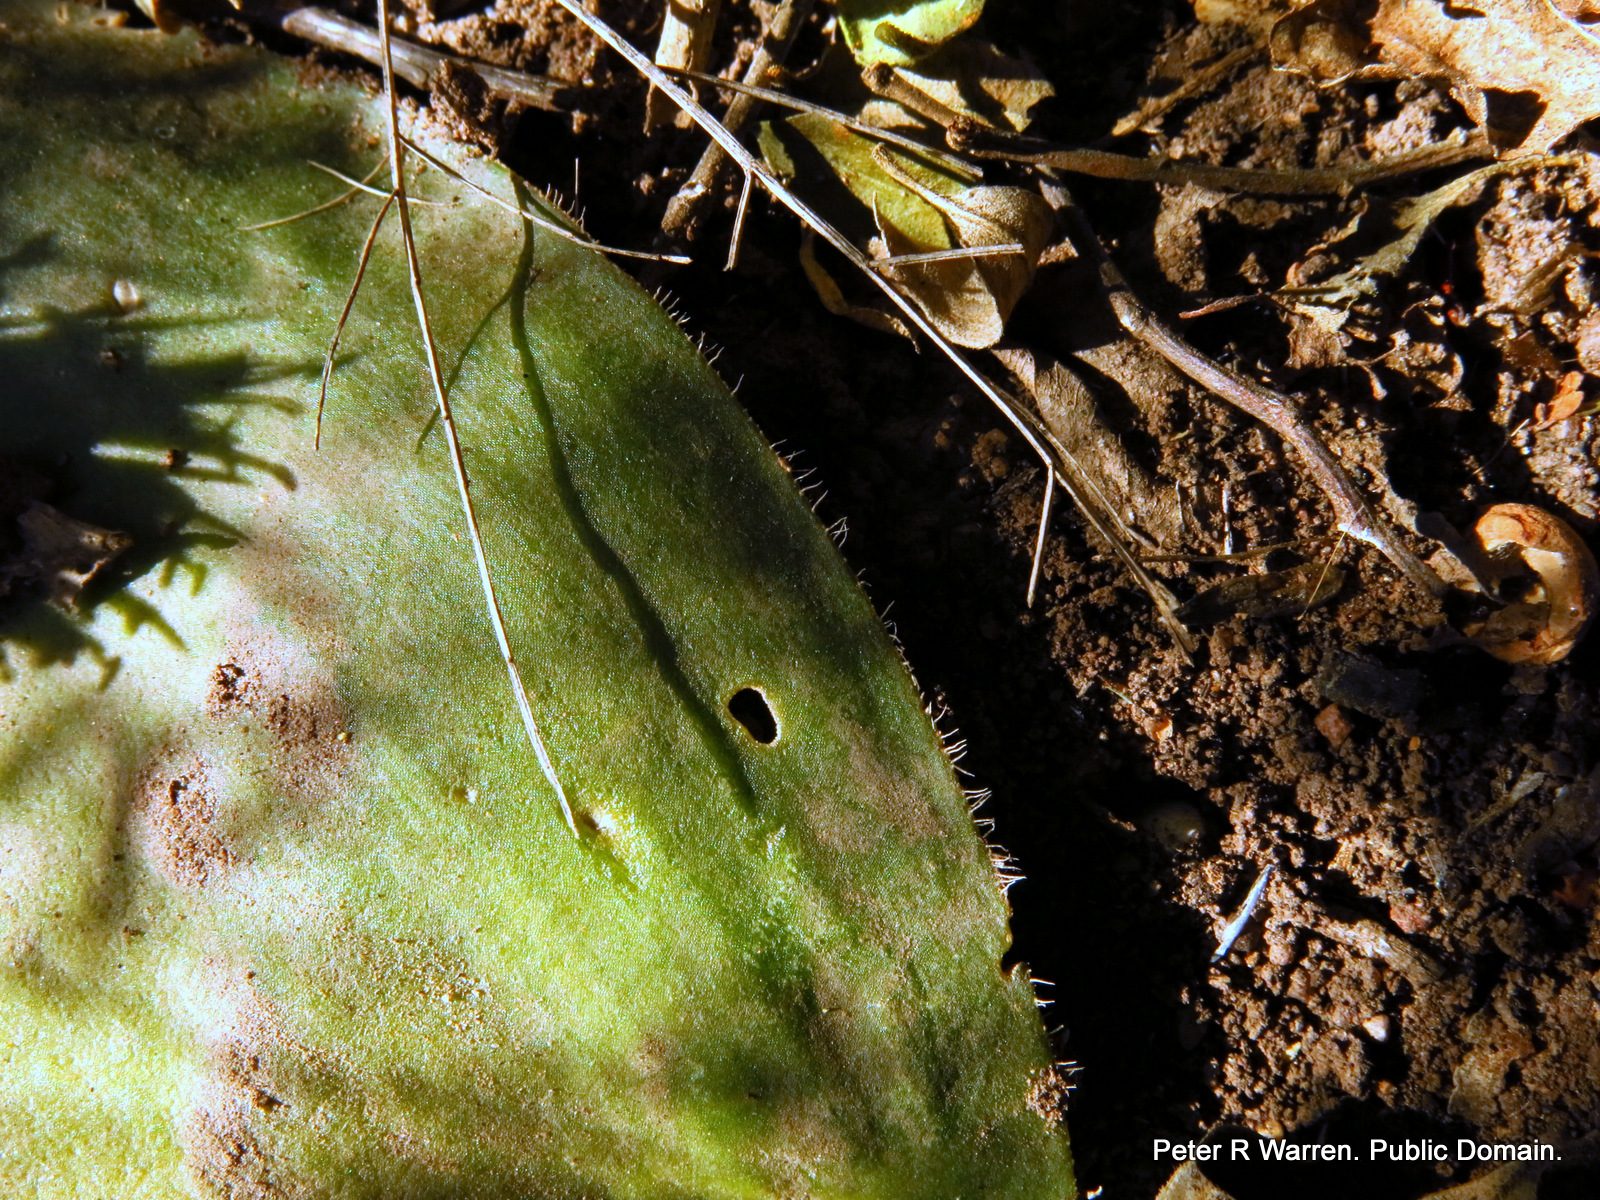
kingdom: Plantae
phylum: Tracheophyta
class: Liliopsida
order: Asparagales
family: Amaryllidaceae
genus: Haemanthus
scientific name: Haemanthus deformis
